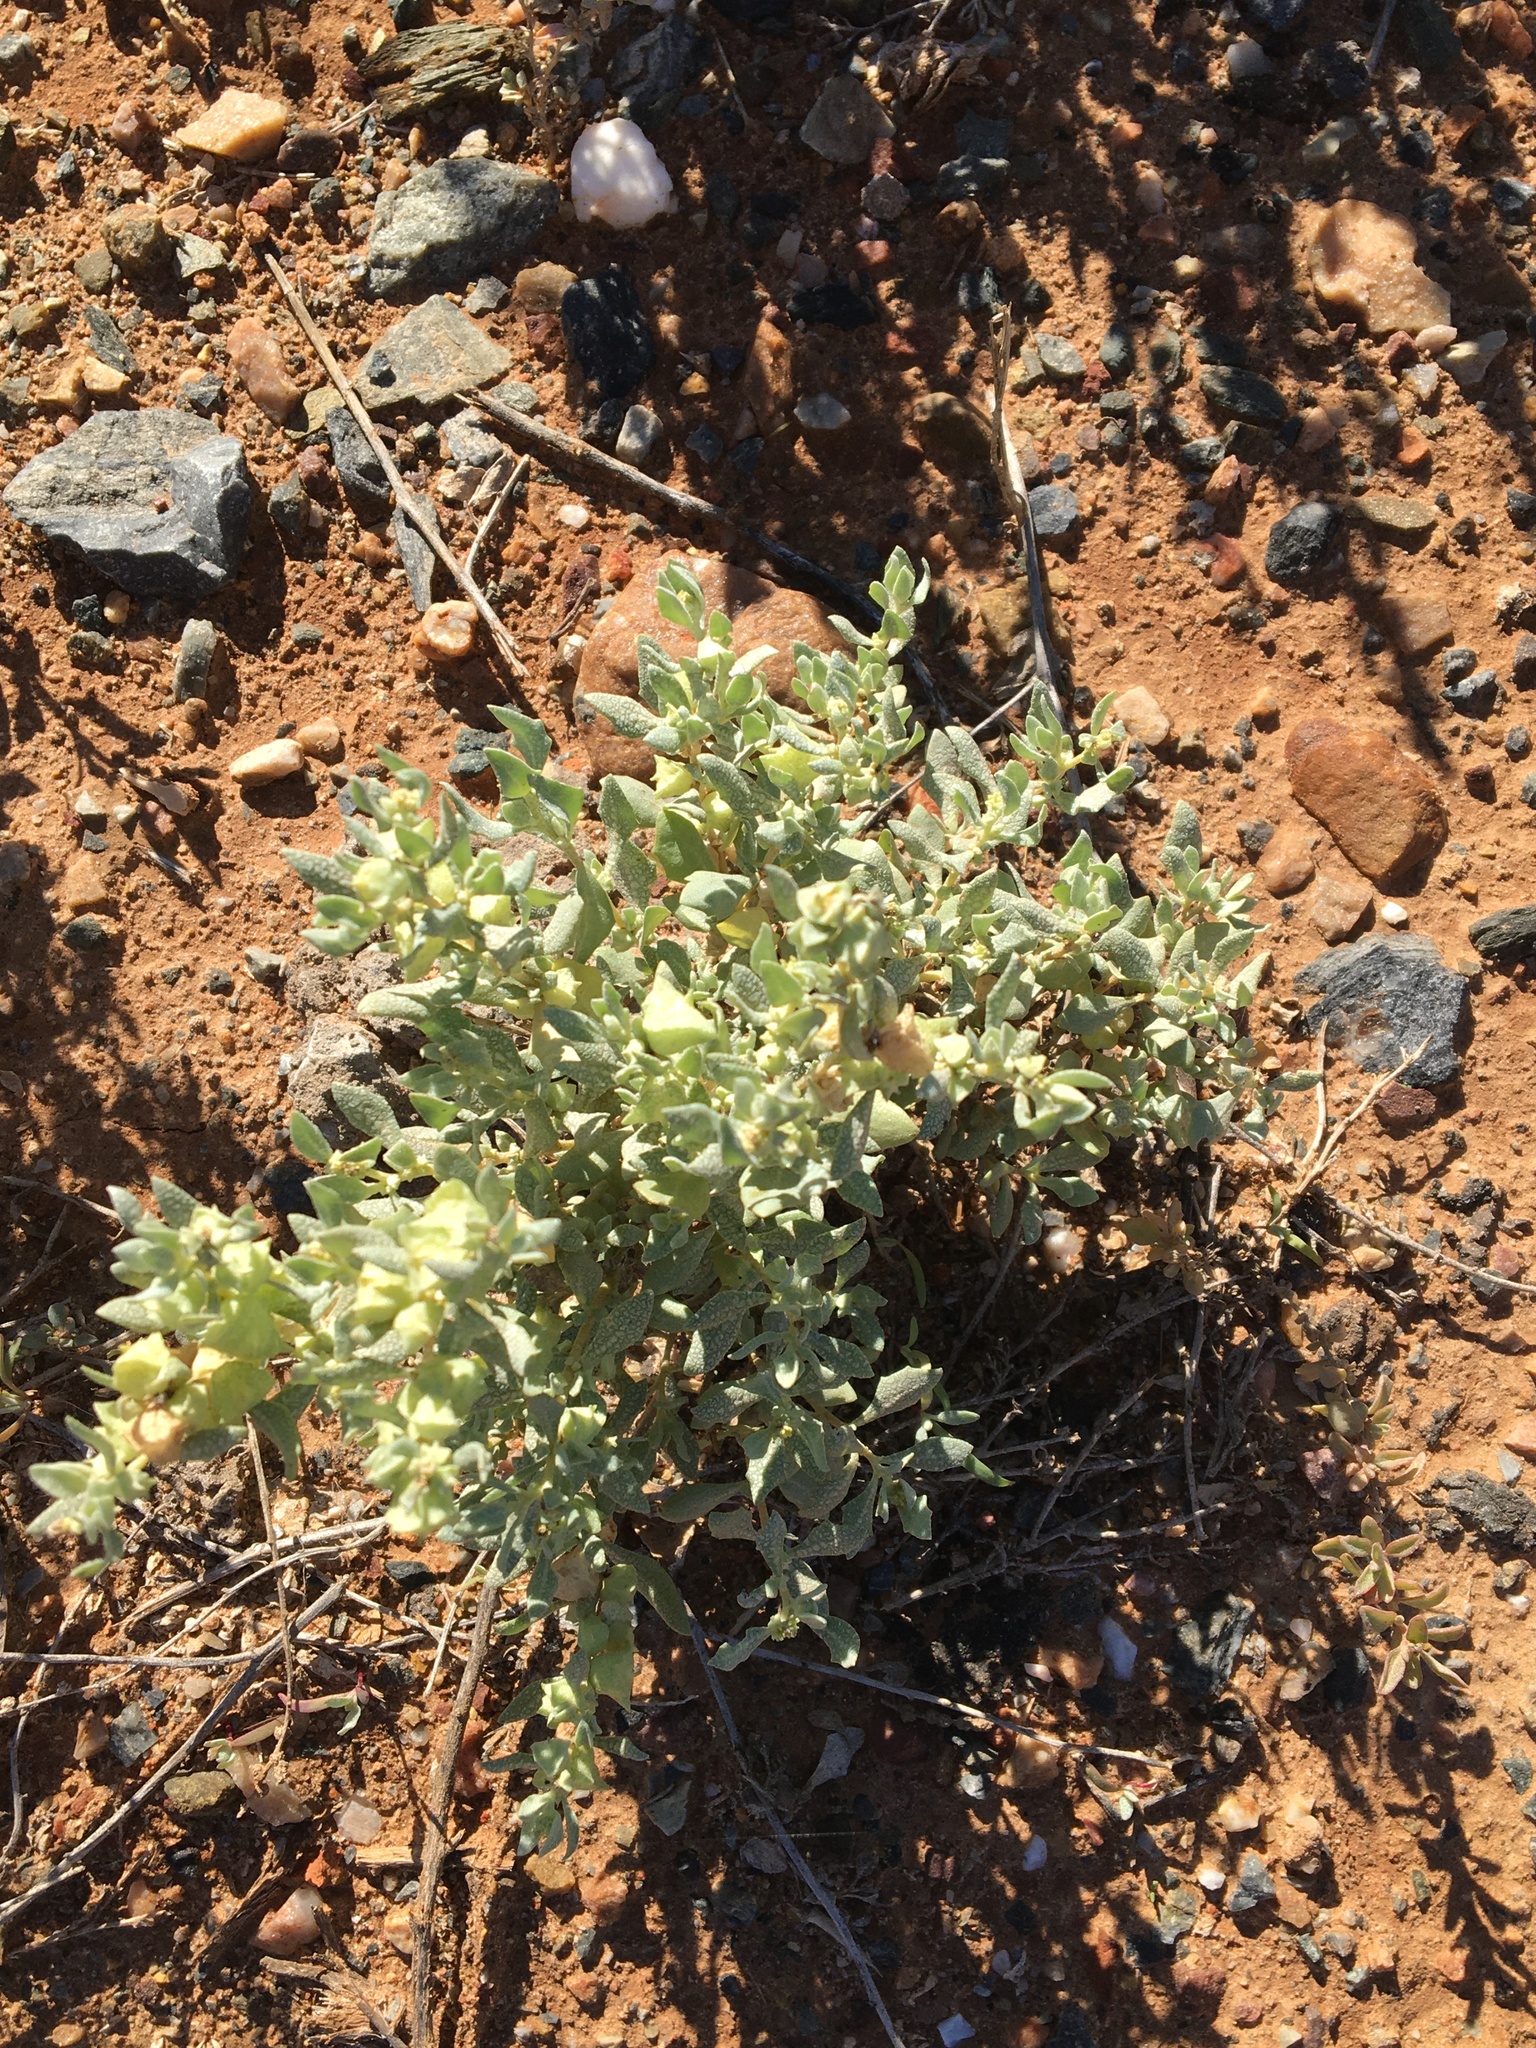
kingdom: Plantae
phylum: Tracheophyta
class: Magnoliopsida
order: Caryophyllales
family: Amaranthaceae
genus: Atriplex
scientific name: Atriplex lindleyi
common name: Lindley's saltbush
